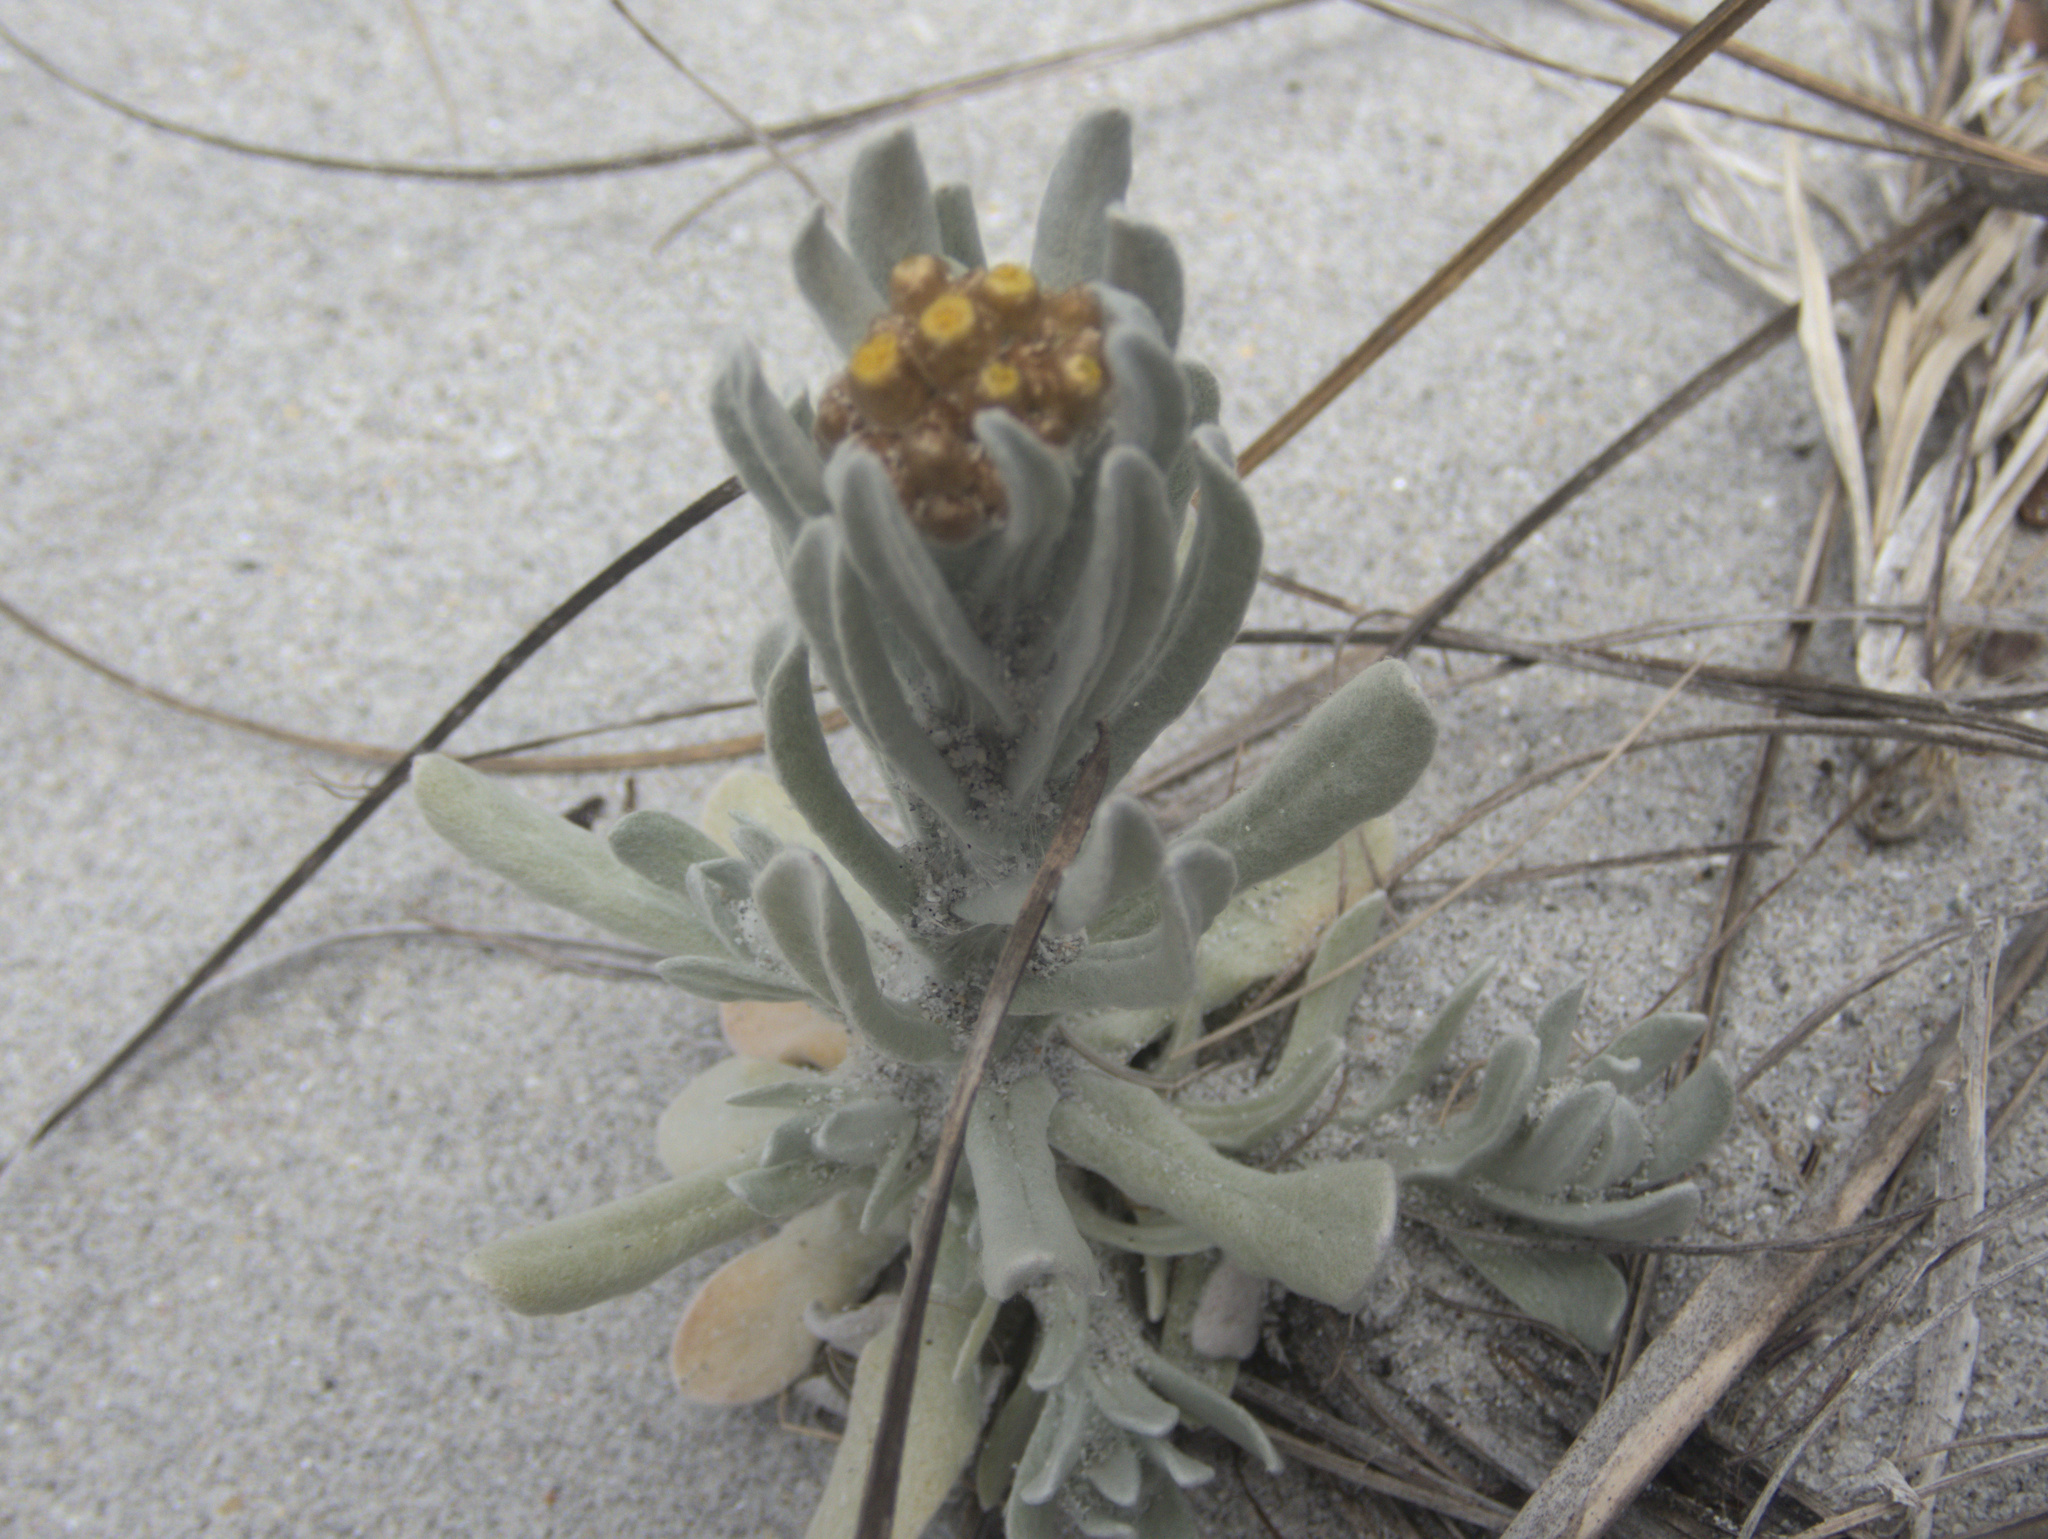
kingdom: Plantae
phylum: Tracheophyta
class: Magnoliopsida
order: Asterales
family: Asteraceae
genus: Pseudognaphalium
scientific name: Pseudognaphalium
